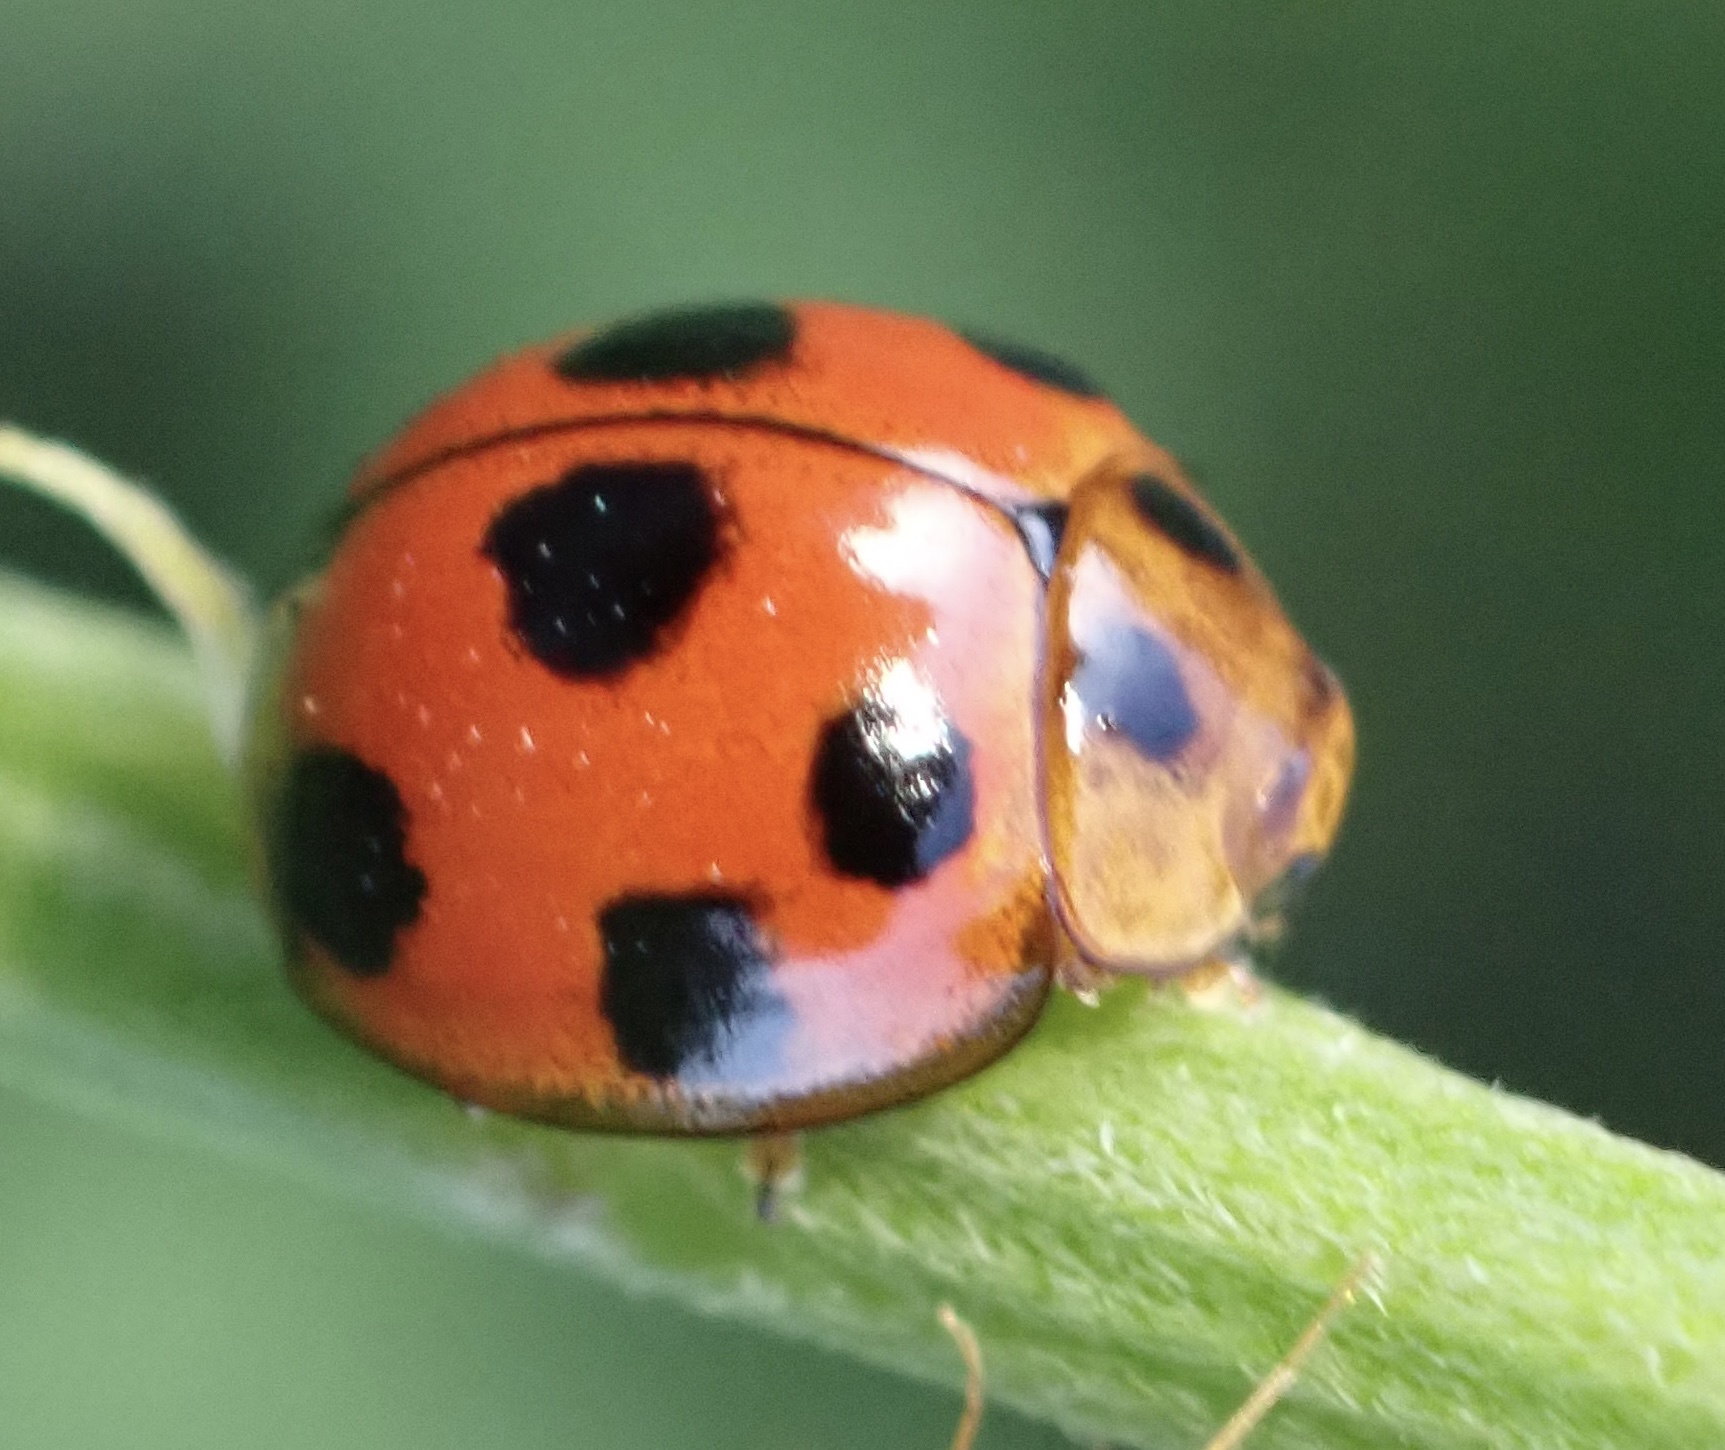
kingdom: Animalia
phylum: Arthropoda
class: Insecta
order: Coleoptera
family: Coccinellidae
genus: Coelophora
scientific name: Coelophora inaequalis
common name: Common australian lady beetle
